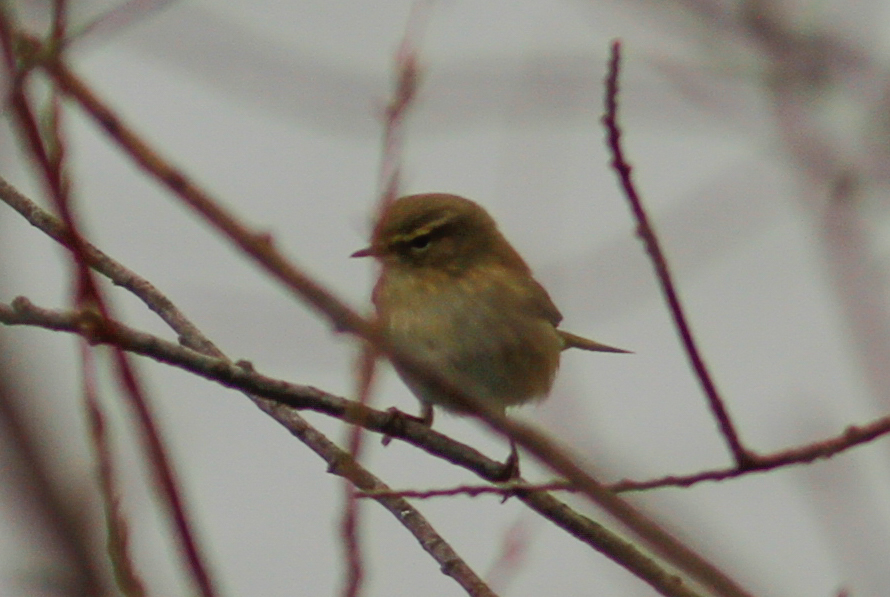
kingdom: Animalia
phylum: Chordata
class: Aves
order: Passeriformes
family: Phylloscopidae
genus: Phylloscopus
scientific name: Phylloscopus collybita
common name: Common chiffchaff
